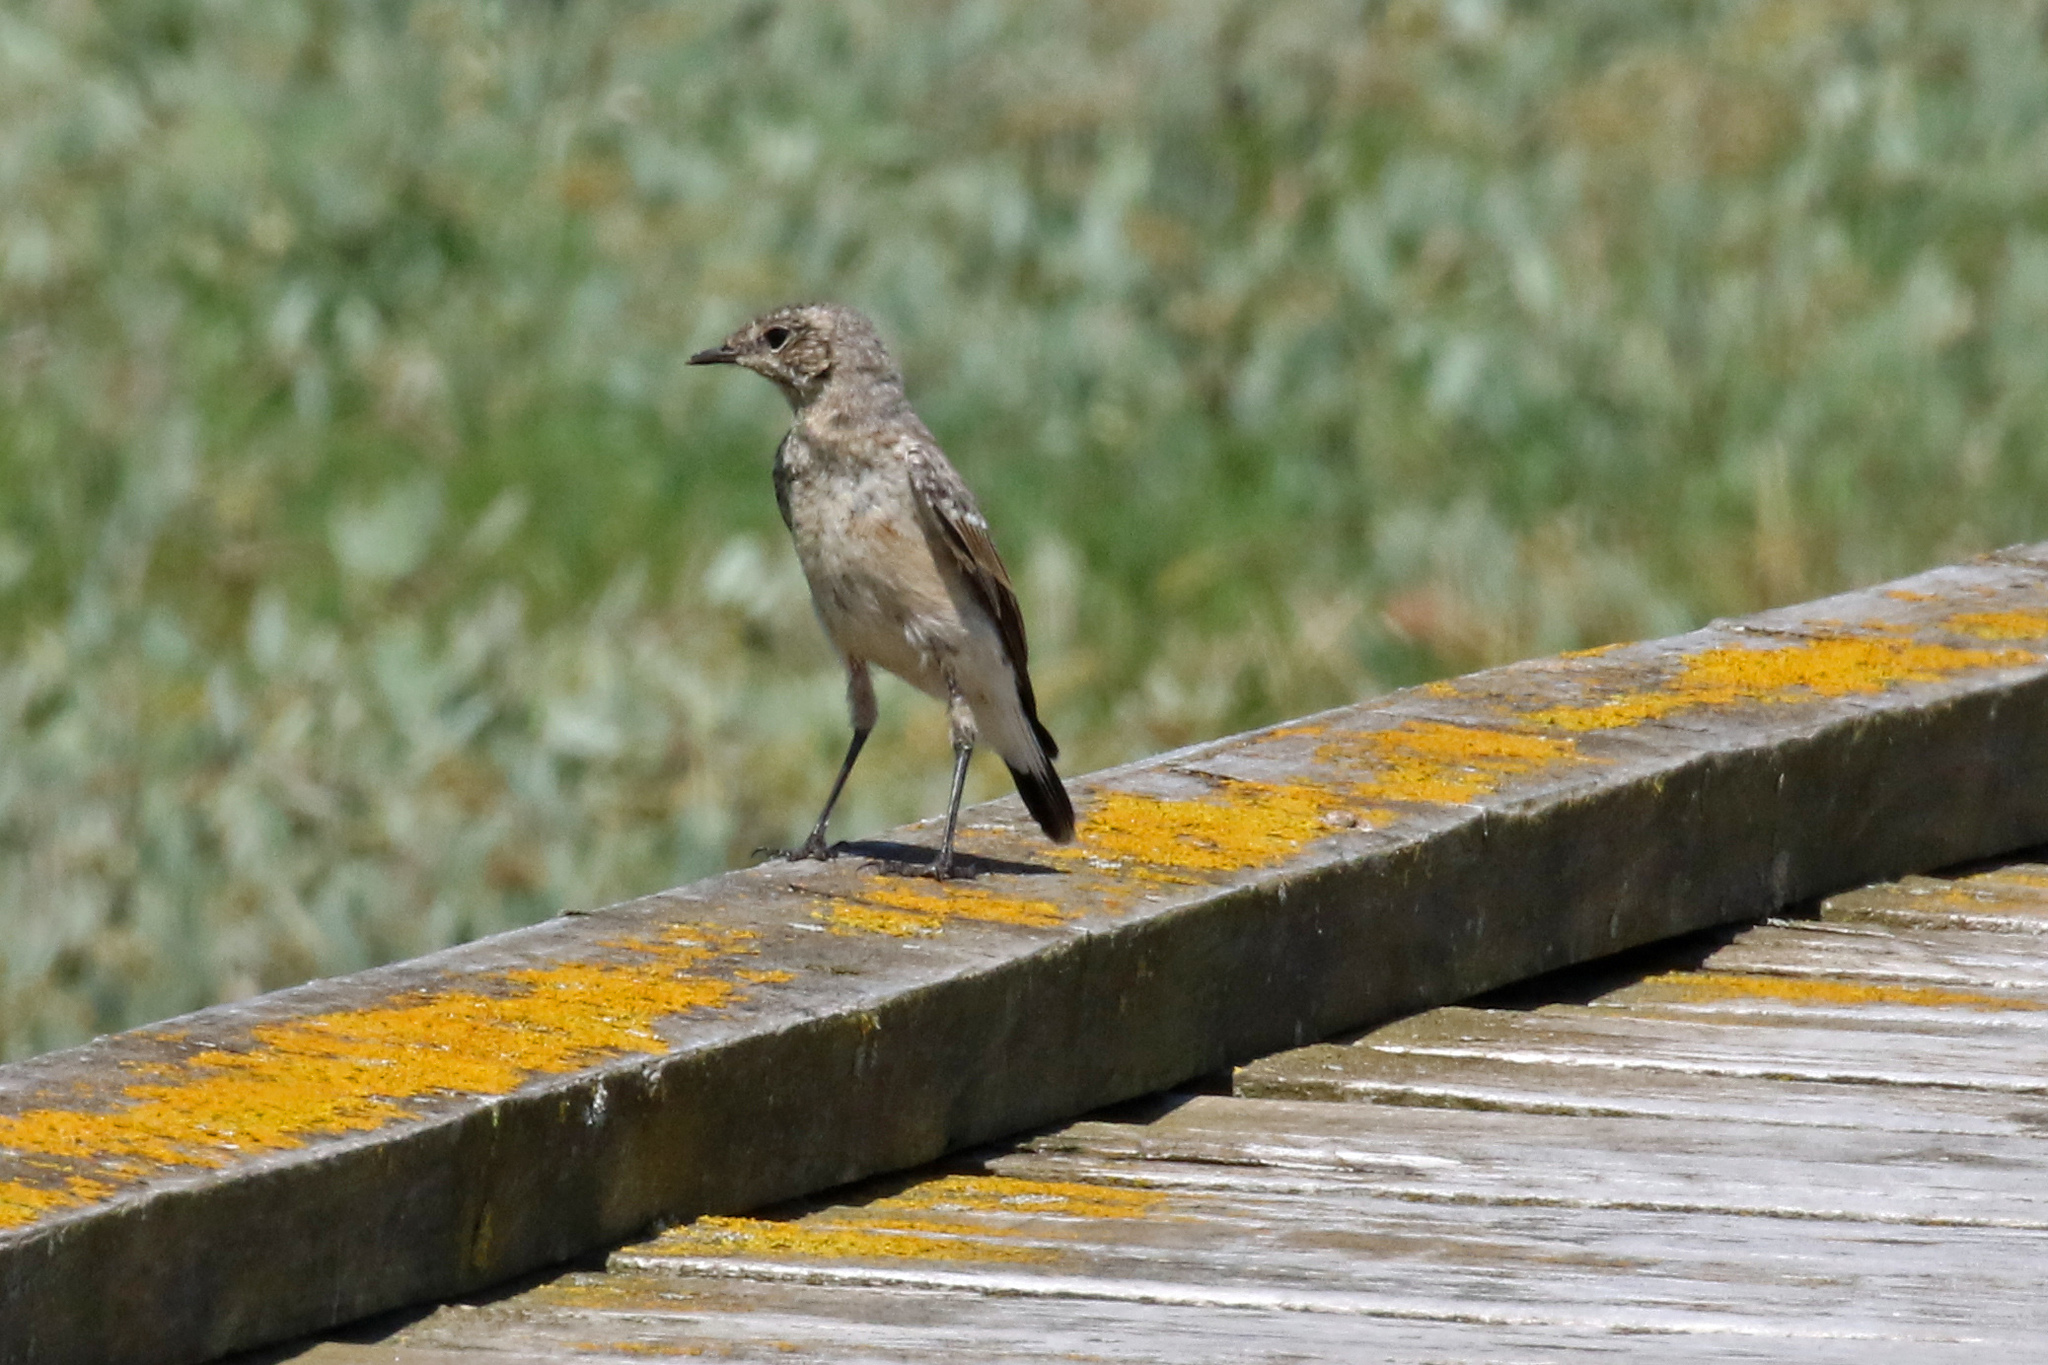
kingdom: Animalia
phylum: Chordata
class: Aves
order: Passeriformes
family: Muscicapidae
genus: Oenanthe
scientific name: Oenanthe oenanthe
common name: Northern wheatear
